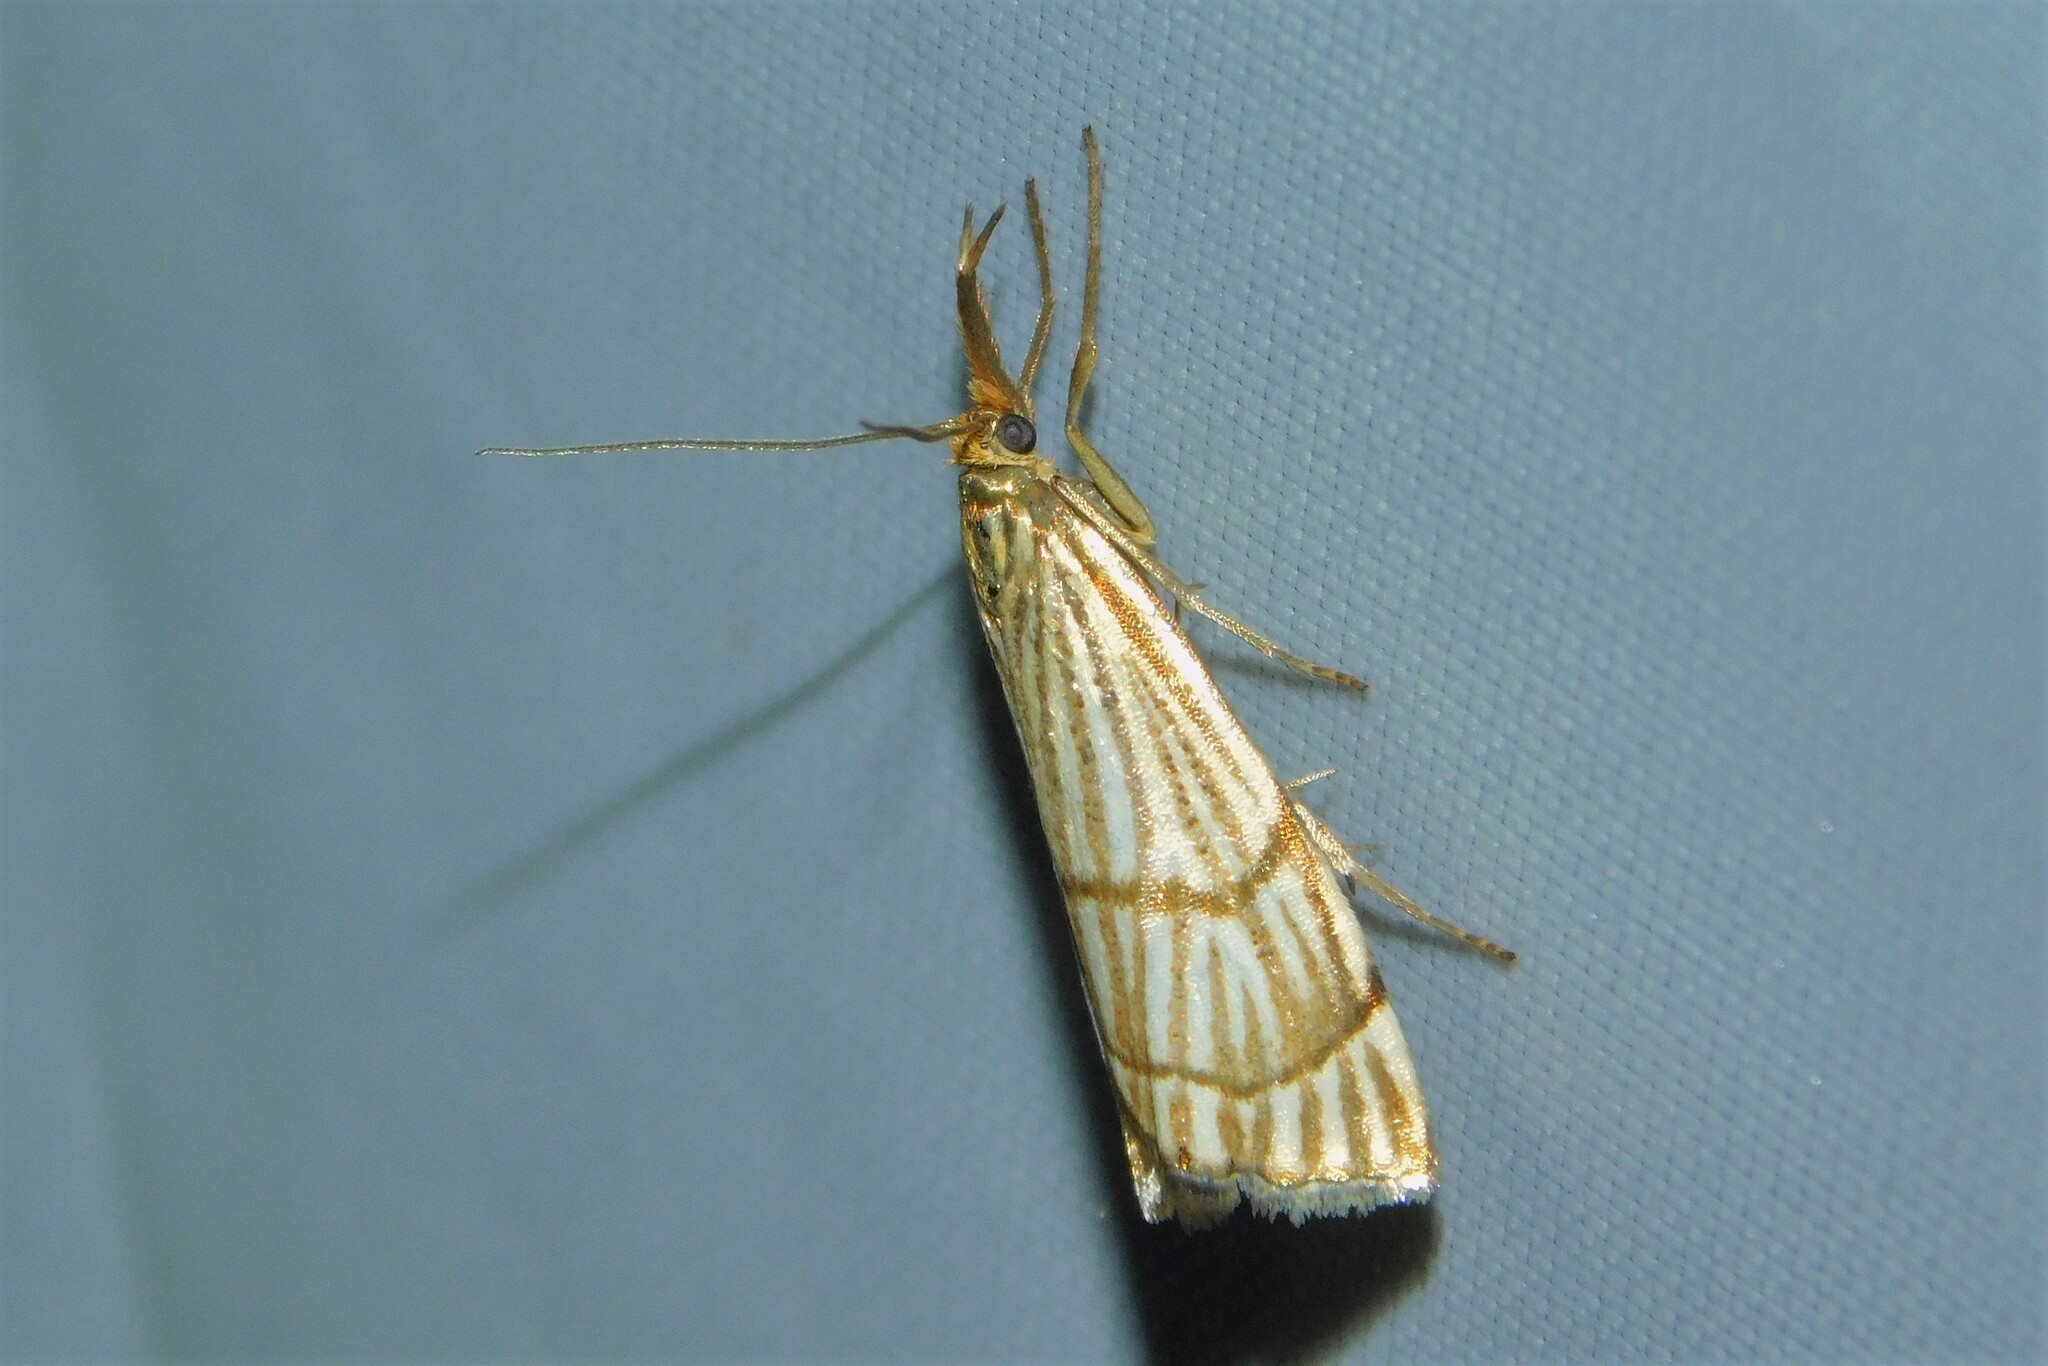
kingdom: Animalia
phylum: Arthropoda
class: Insecta
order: Lepidoptera
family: Crambidae
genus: Chrysocrambus
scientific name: Chrysocrambus linetella
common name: Orange-bar grass-veneer
